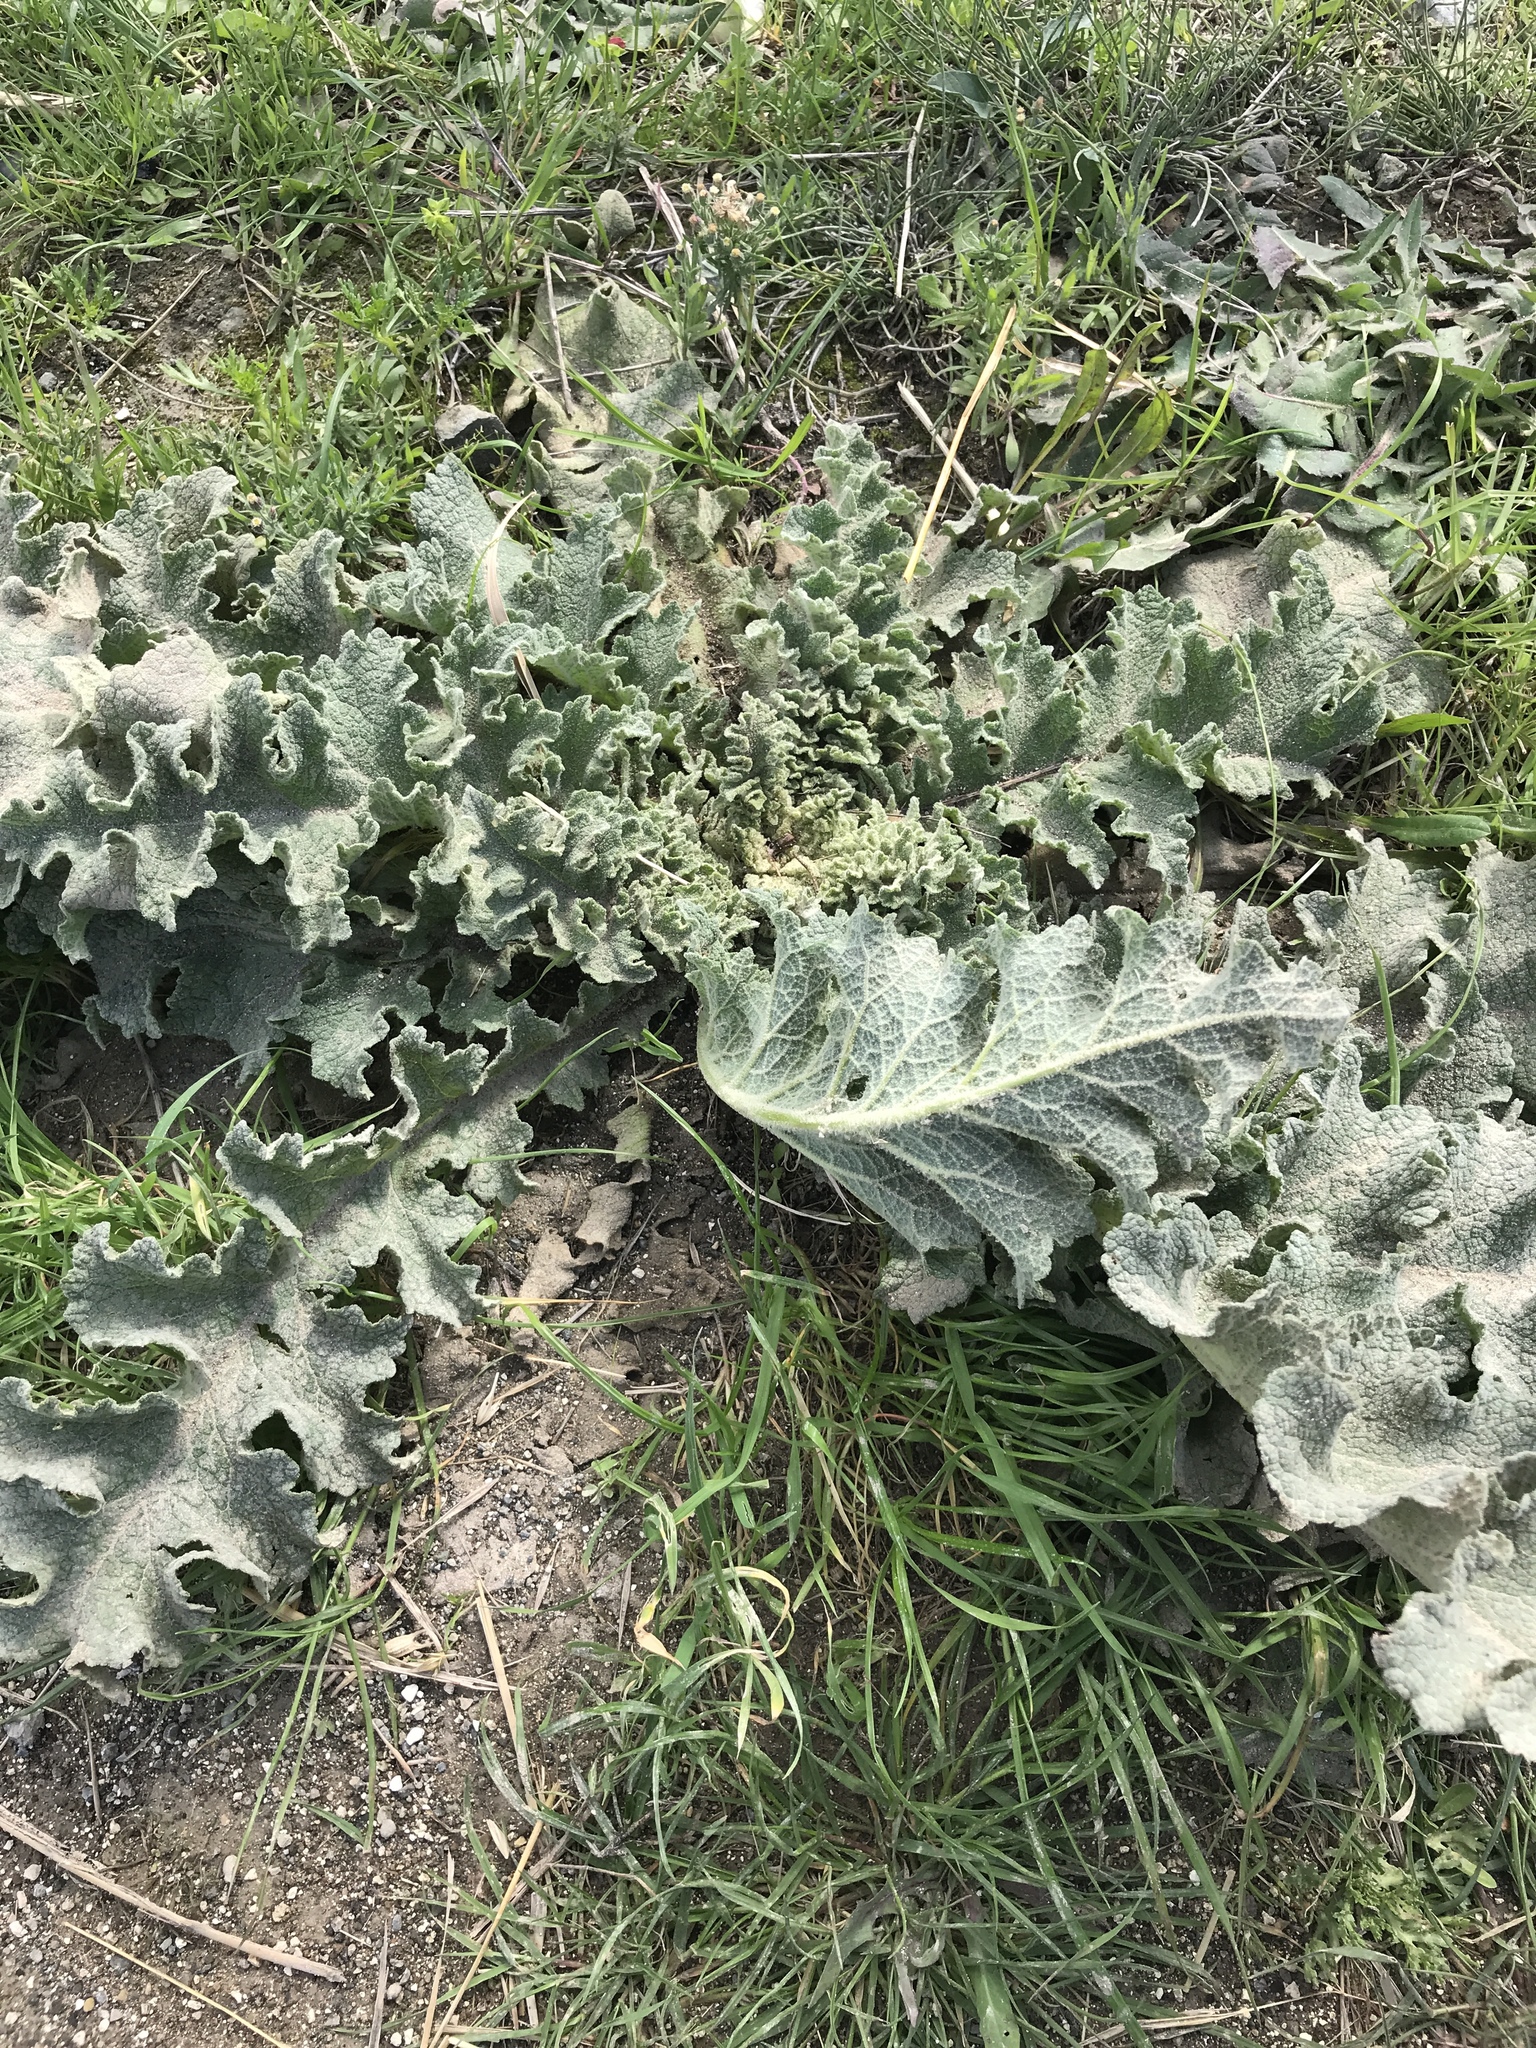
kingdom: Plantae
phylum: Tracheophyta
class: Magnoliopsida
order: Lamiales
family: Scrophulariaceae
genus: Verbascum
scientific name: Verbascum sinuatum
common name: Wavyleaf mullein
